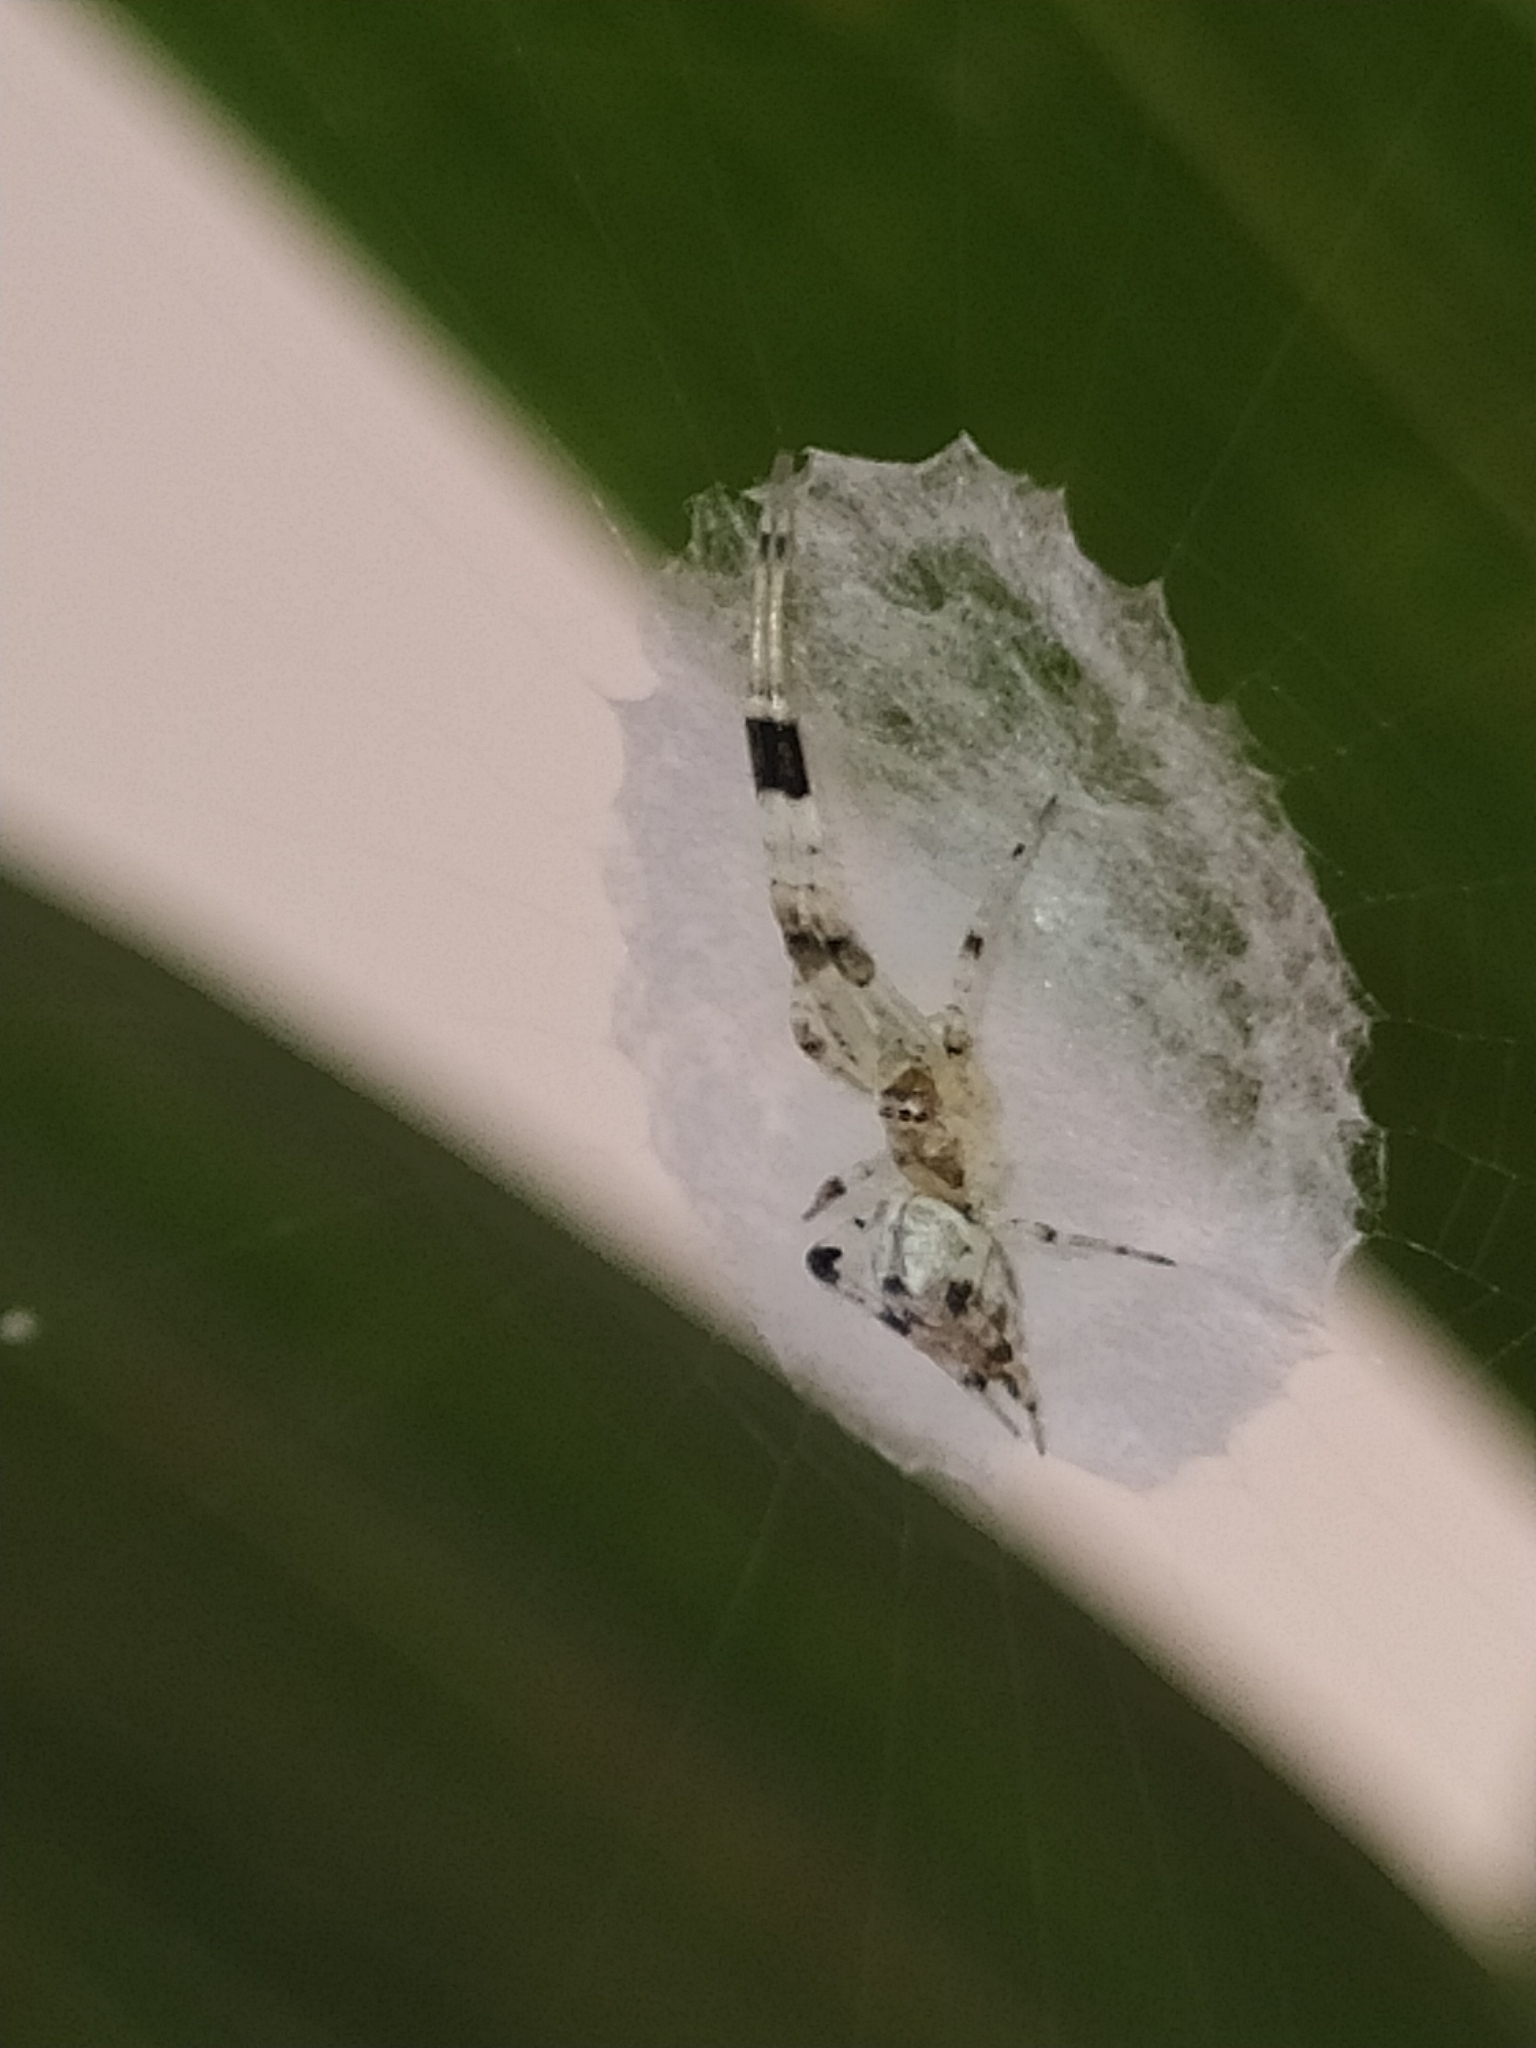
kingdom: Animalia
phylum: Arthropoda
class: Arachnida
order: Araneae
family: Uloboridae
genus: Zosis
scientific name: Zosis geniculata
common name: Hackled orb weavers
